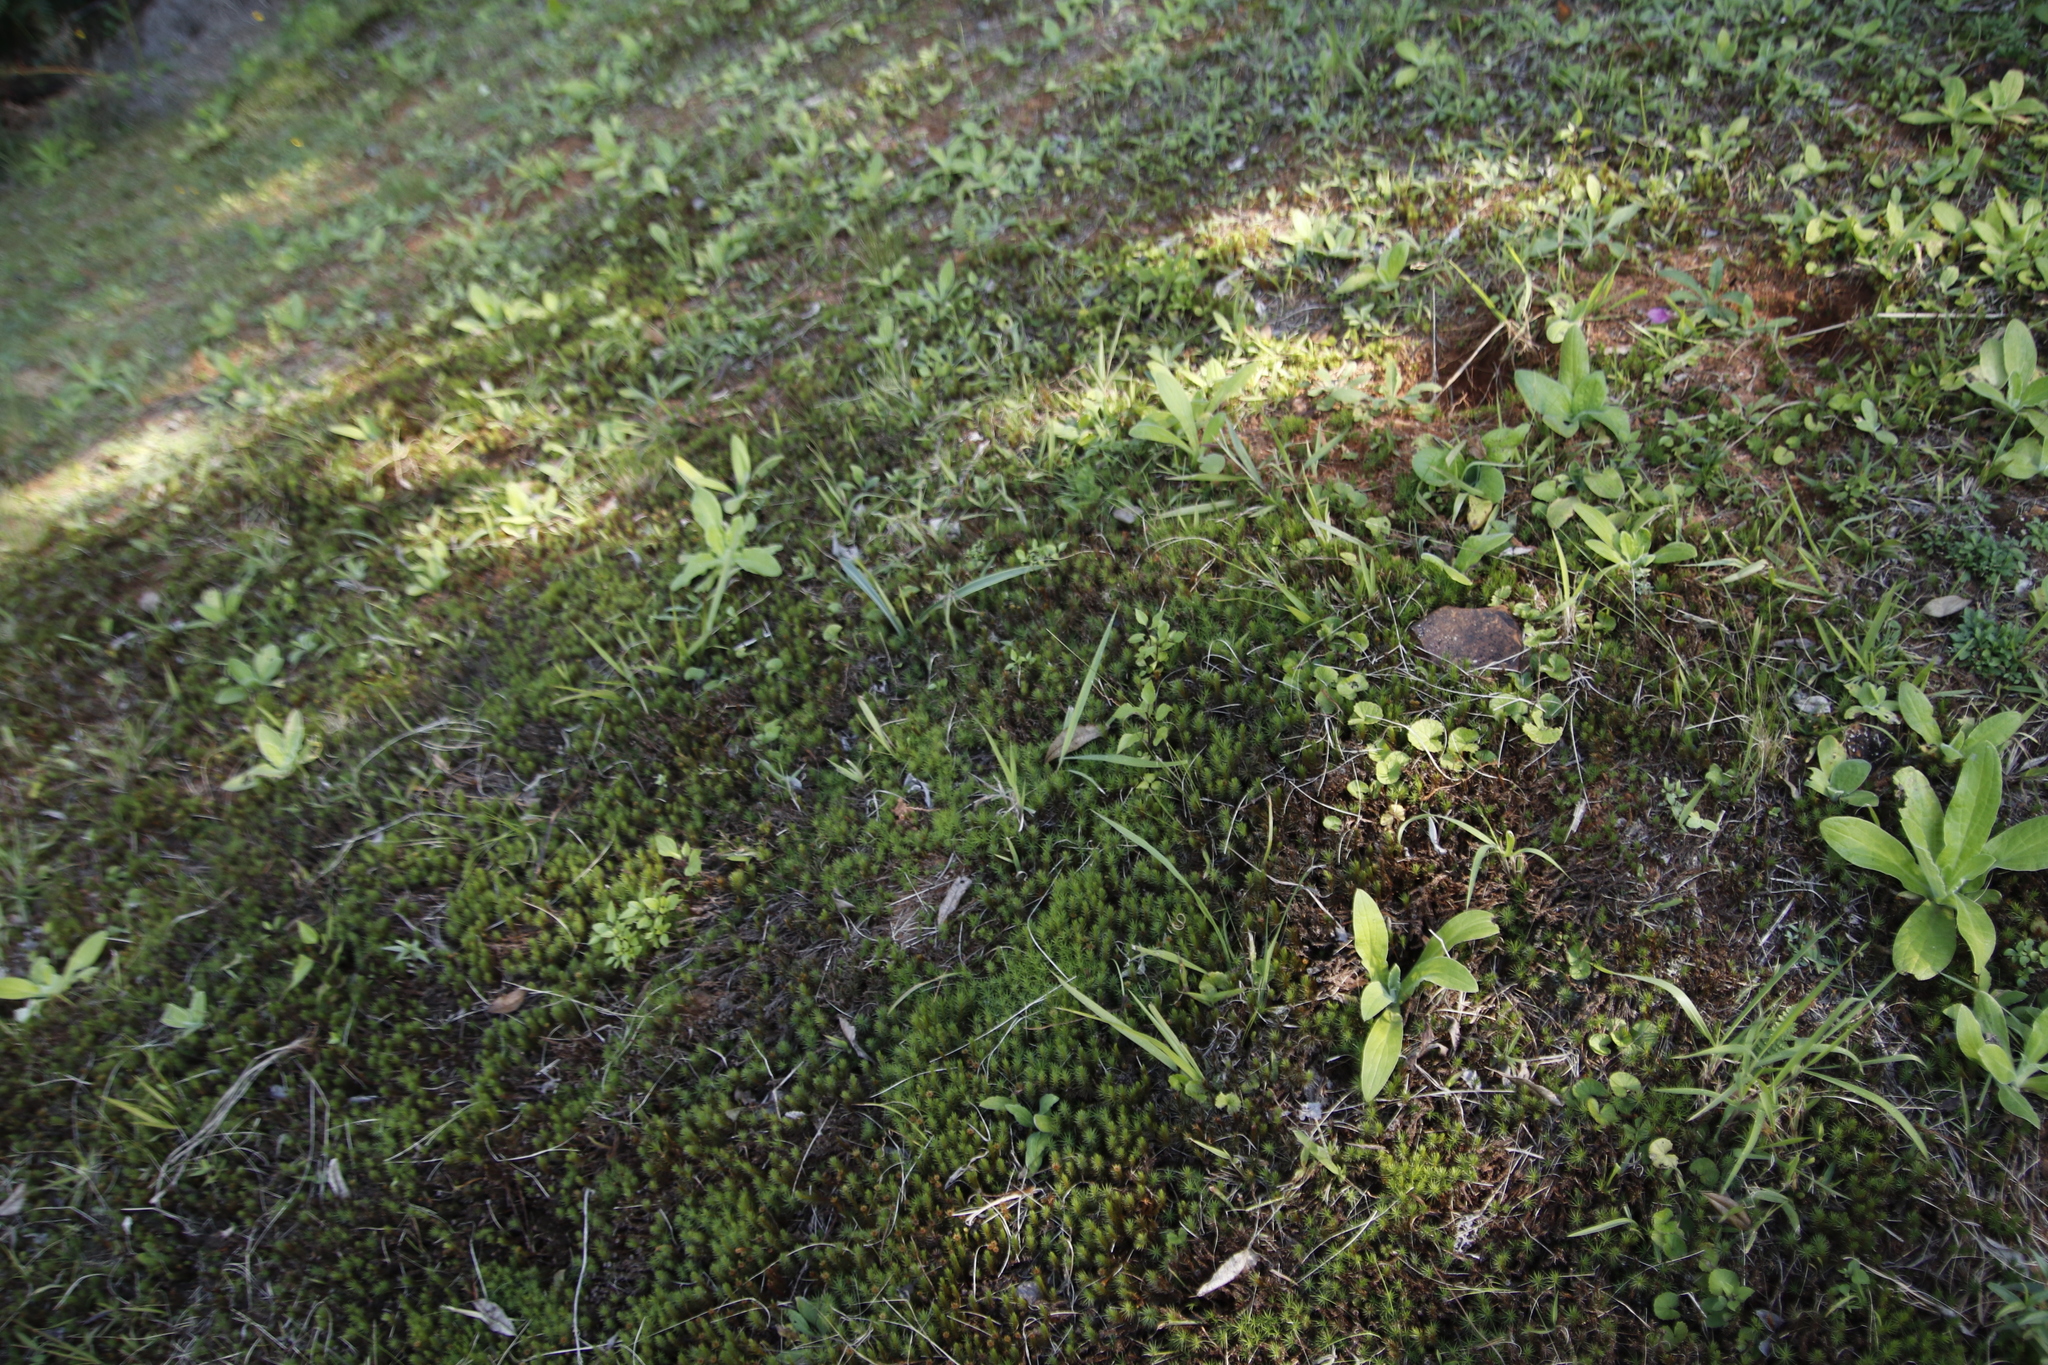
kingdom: Plantae
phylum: Bryophyta
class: Polytrichopsida
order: Polytrichales
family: Polytrichaceae
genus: Polytrichum
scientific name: Polytrichum juniperinum
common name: Juniper haircap moss
